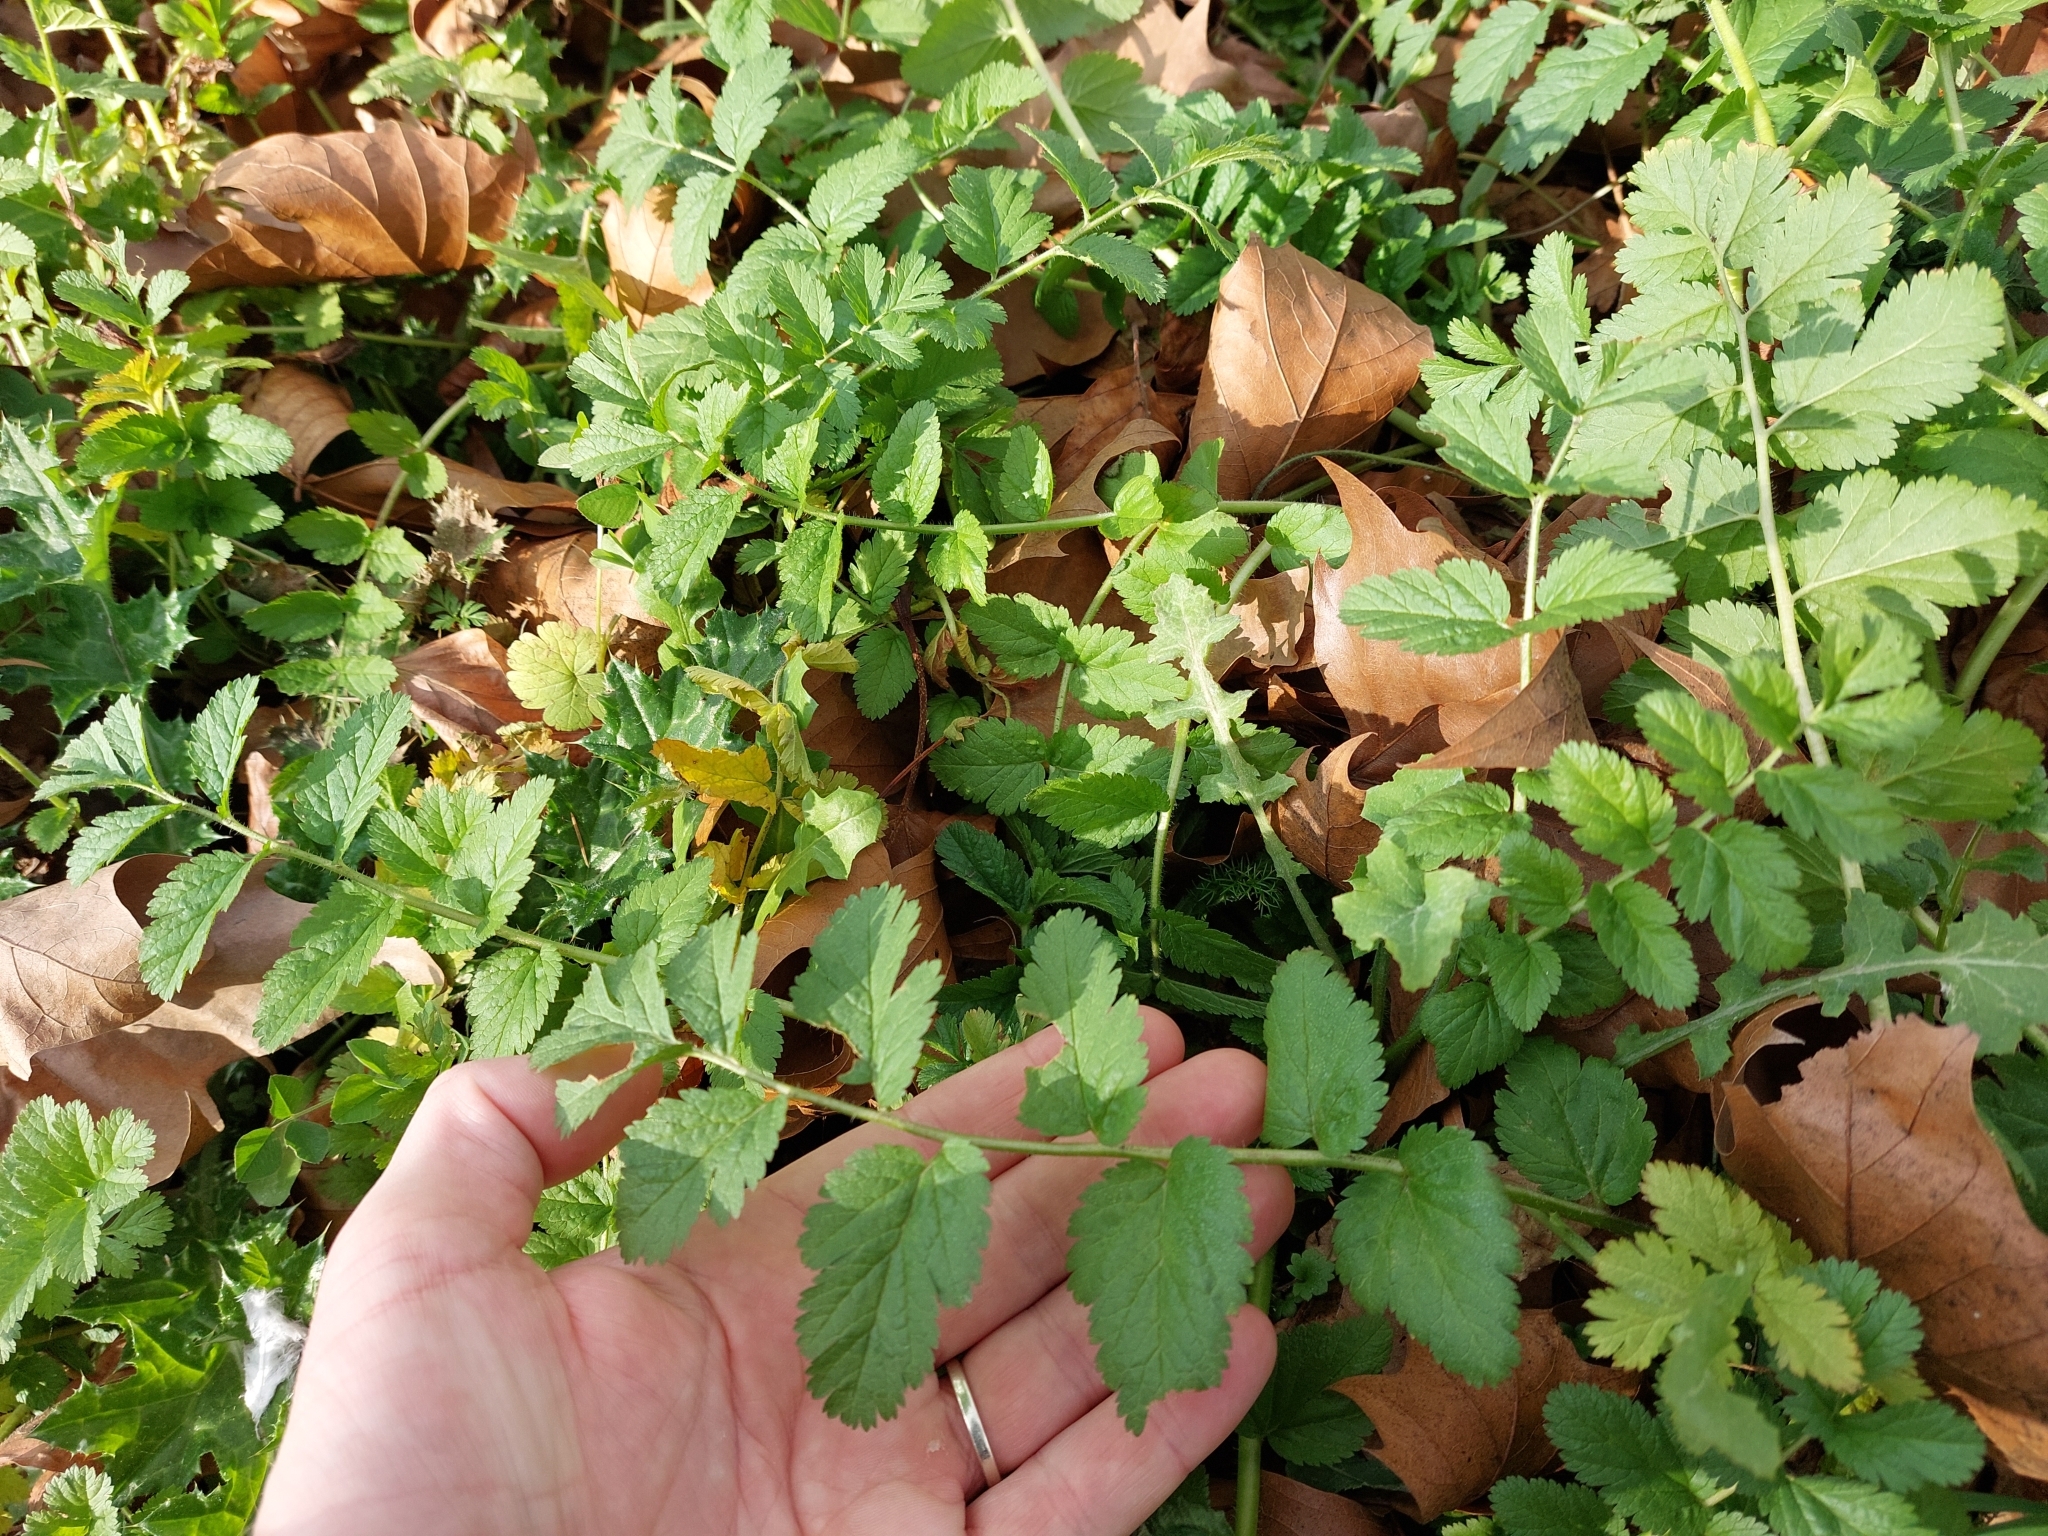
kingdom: Plantae
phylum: Tracheophyta
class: Magnoliopsida
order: Geraniales
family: Geraniaceae
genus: Erodium
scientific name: Erodium moschatum
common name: Musk stork's-bill
